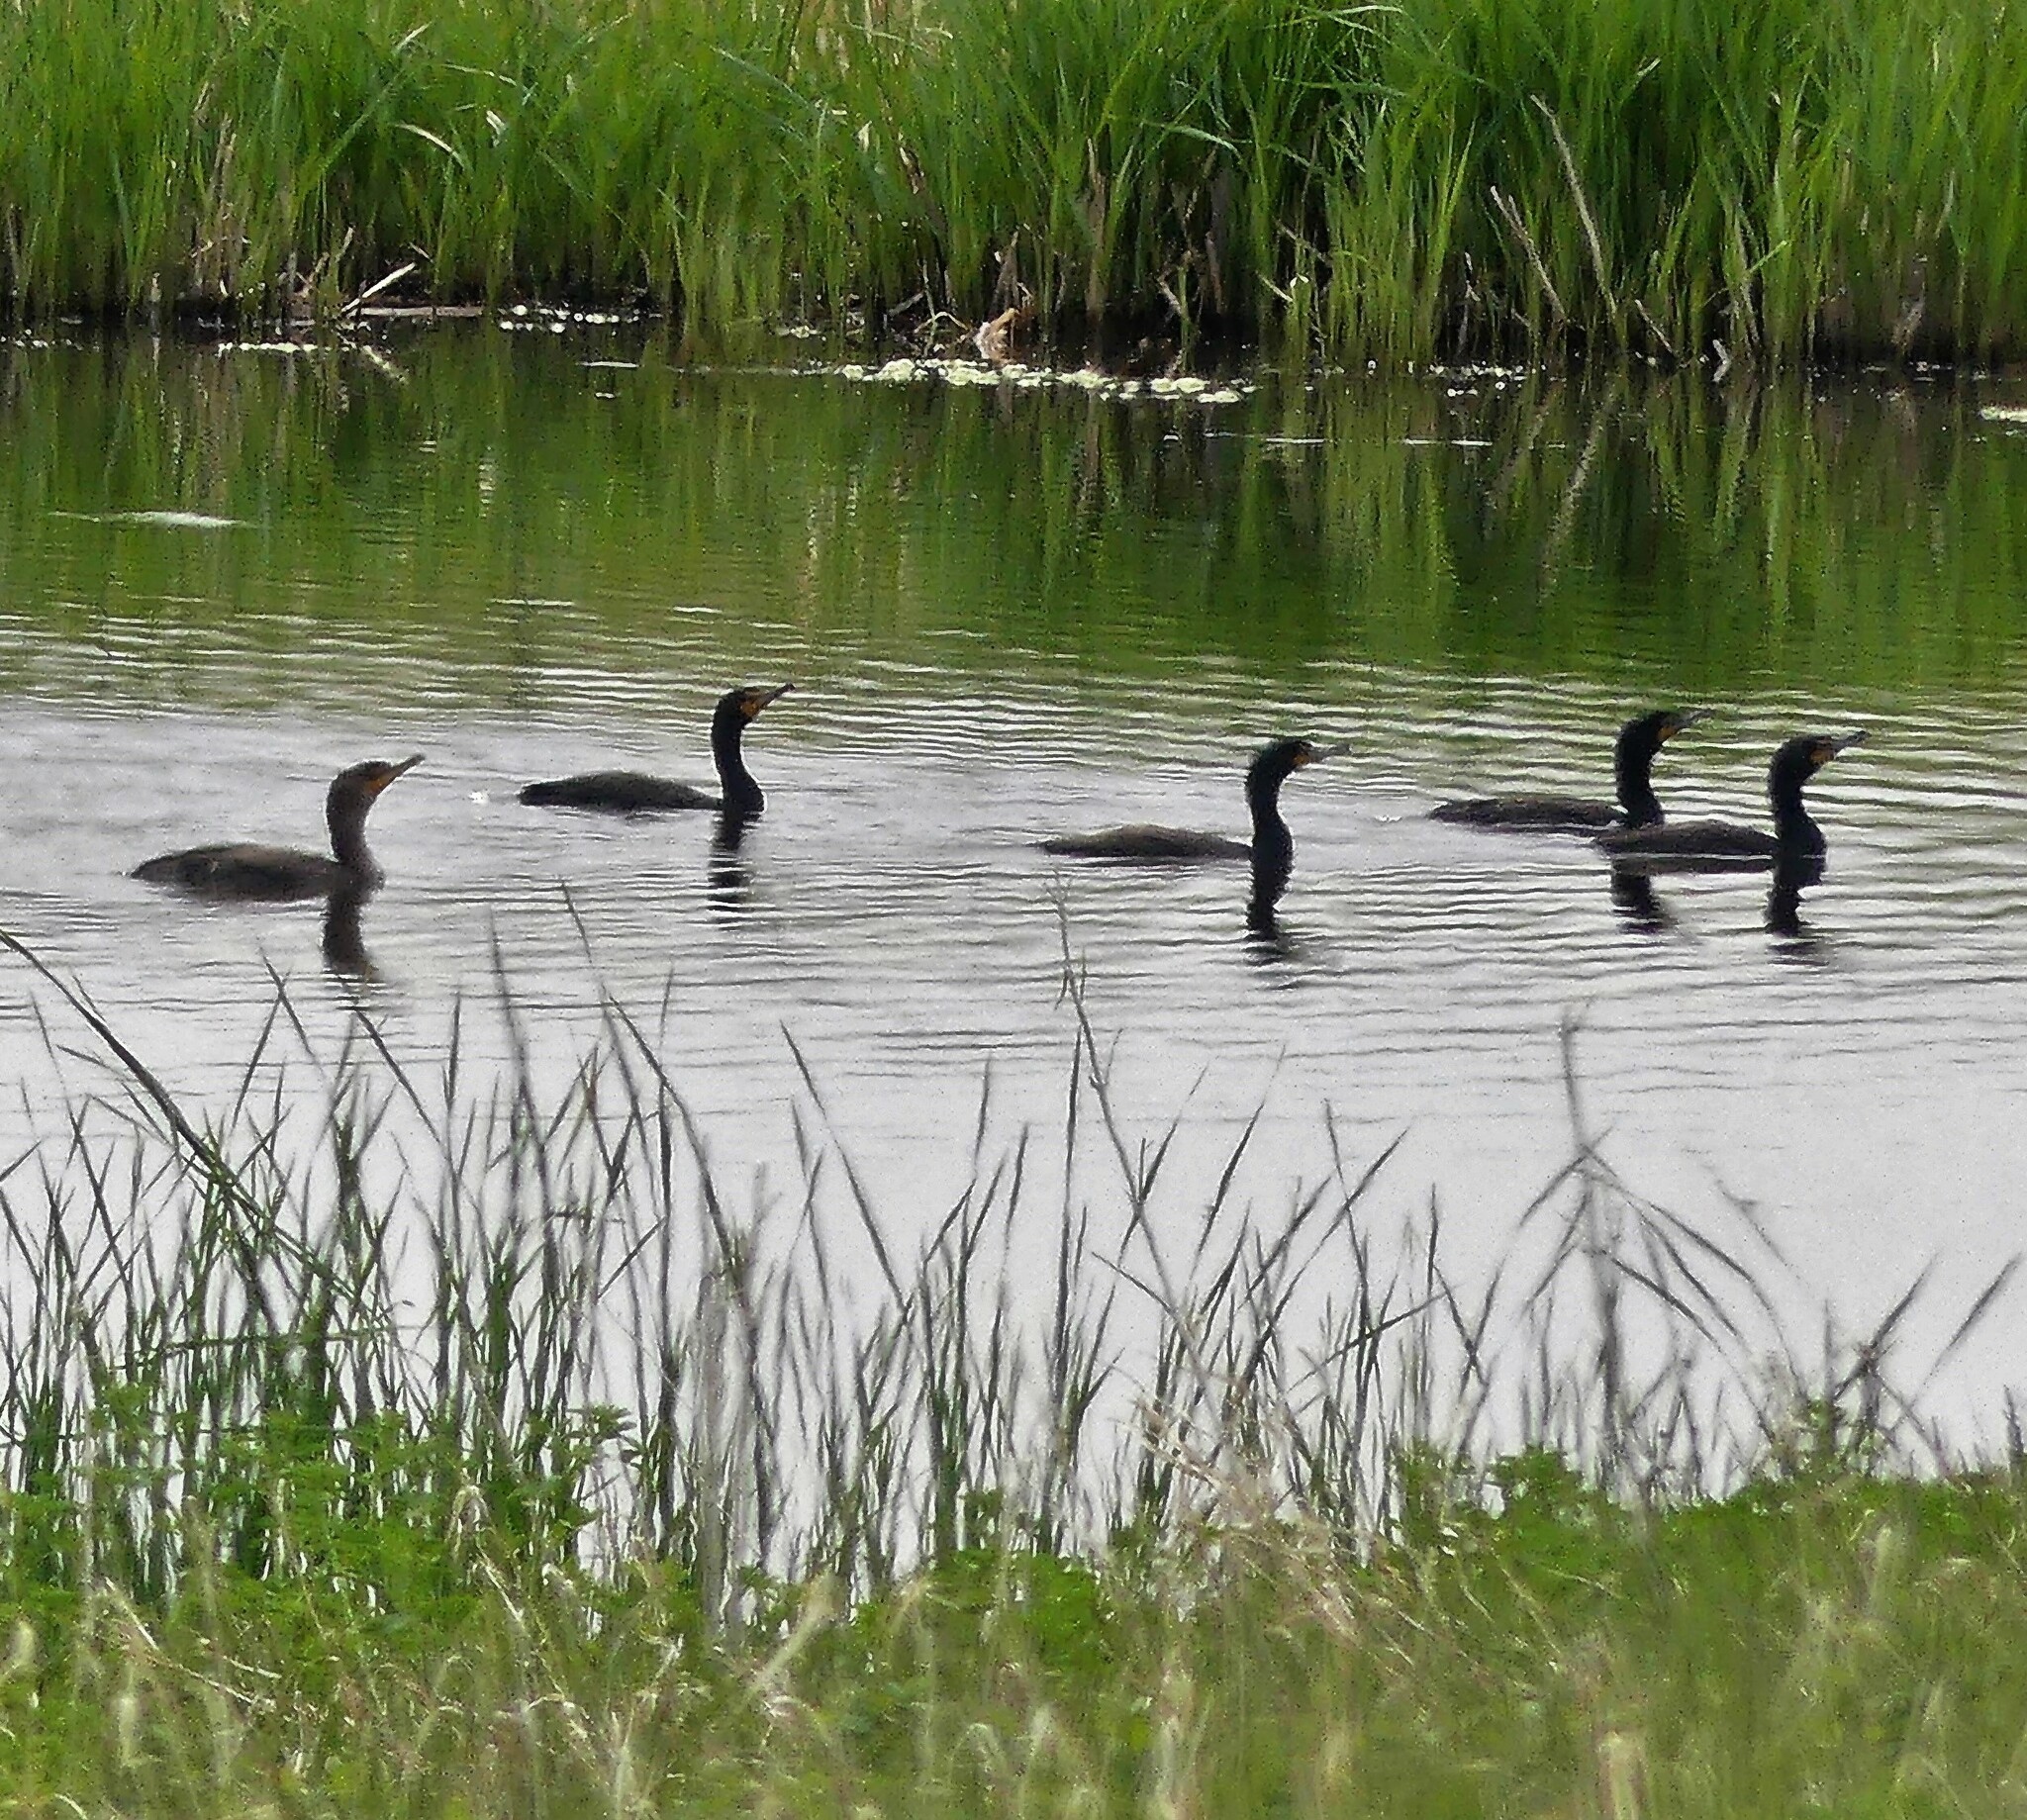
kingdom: Animalia
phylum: Chordata
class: Aves
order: Suliformes
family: Phalacrocoracidae
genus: Phalacrocorax
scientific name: Phalacrocorax auritus
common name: Double-crested cormorant
